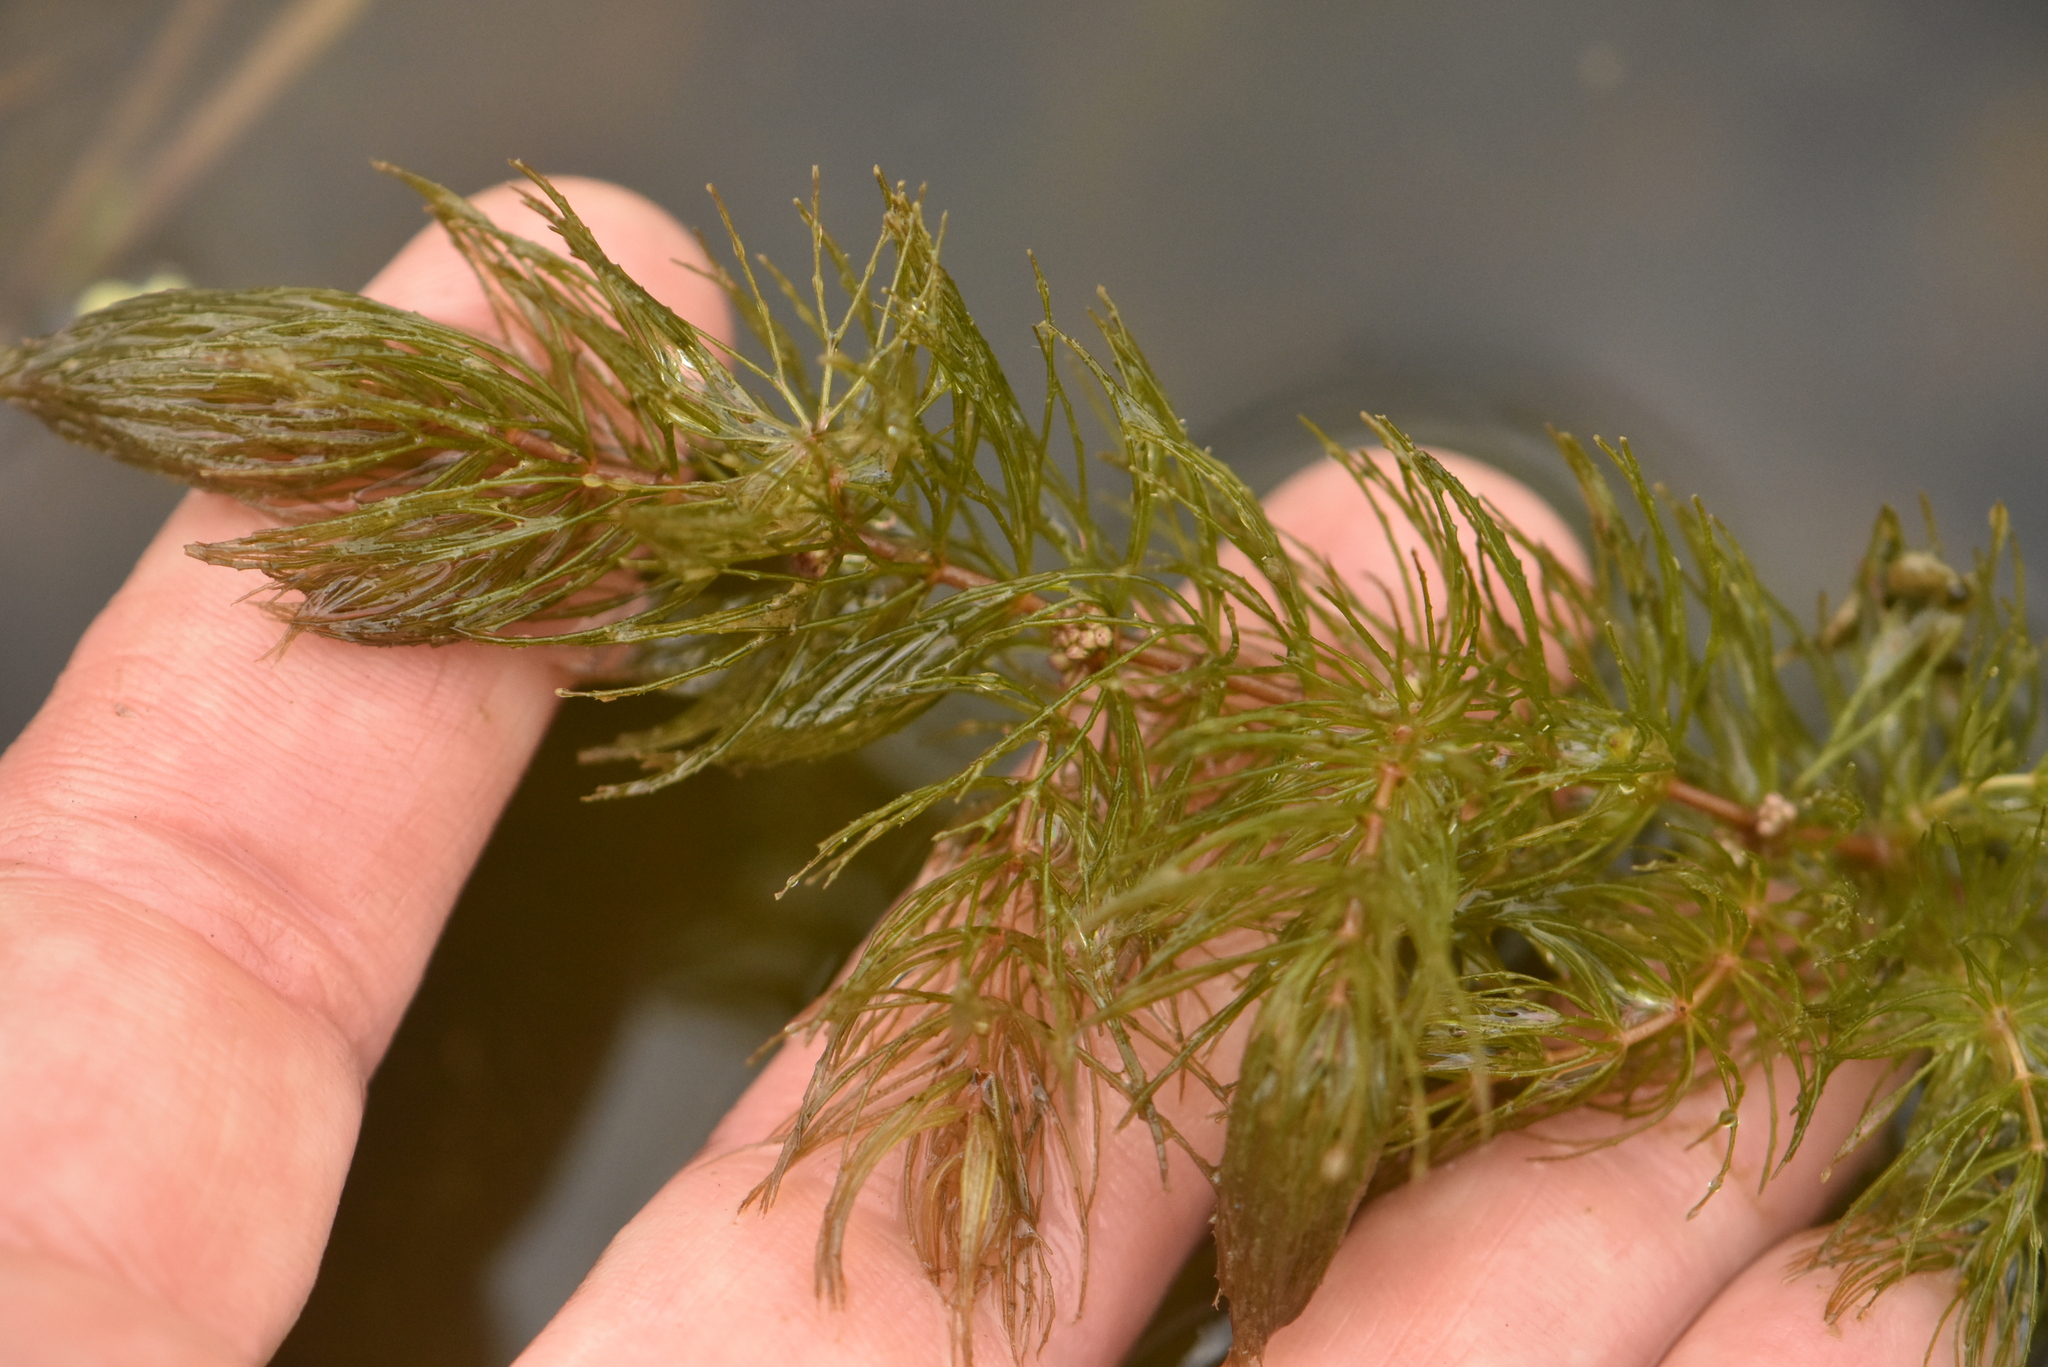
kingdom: Plantae
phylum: Tracheophyta
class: Magnoliopsida
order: Ceratophyllales
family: Ceratophyllaceae
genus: Ceratophyllum
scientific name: Ceratophyllum demersum
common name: Rigid hornwort
